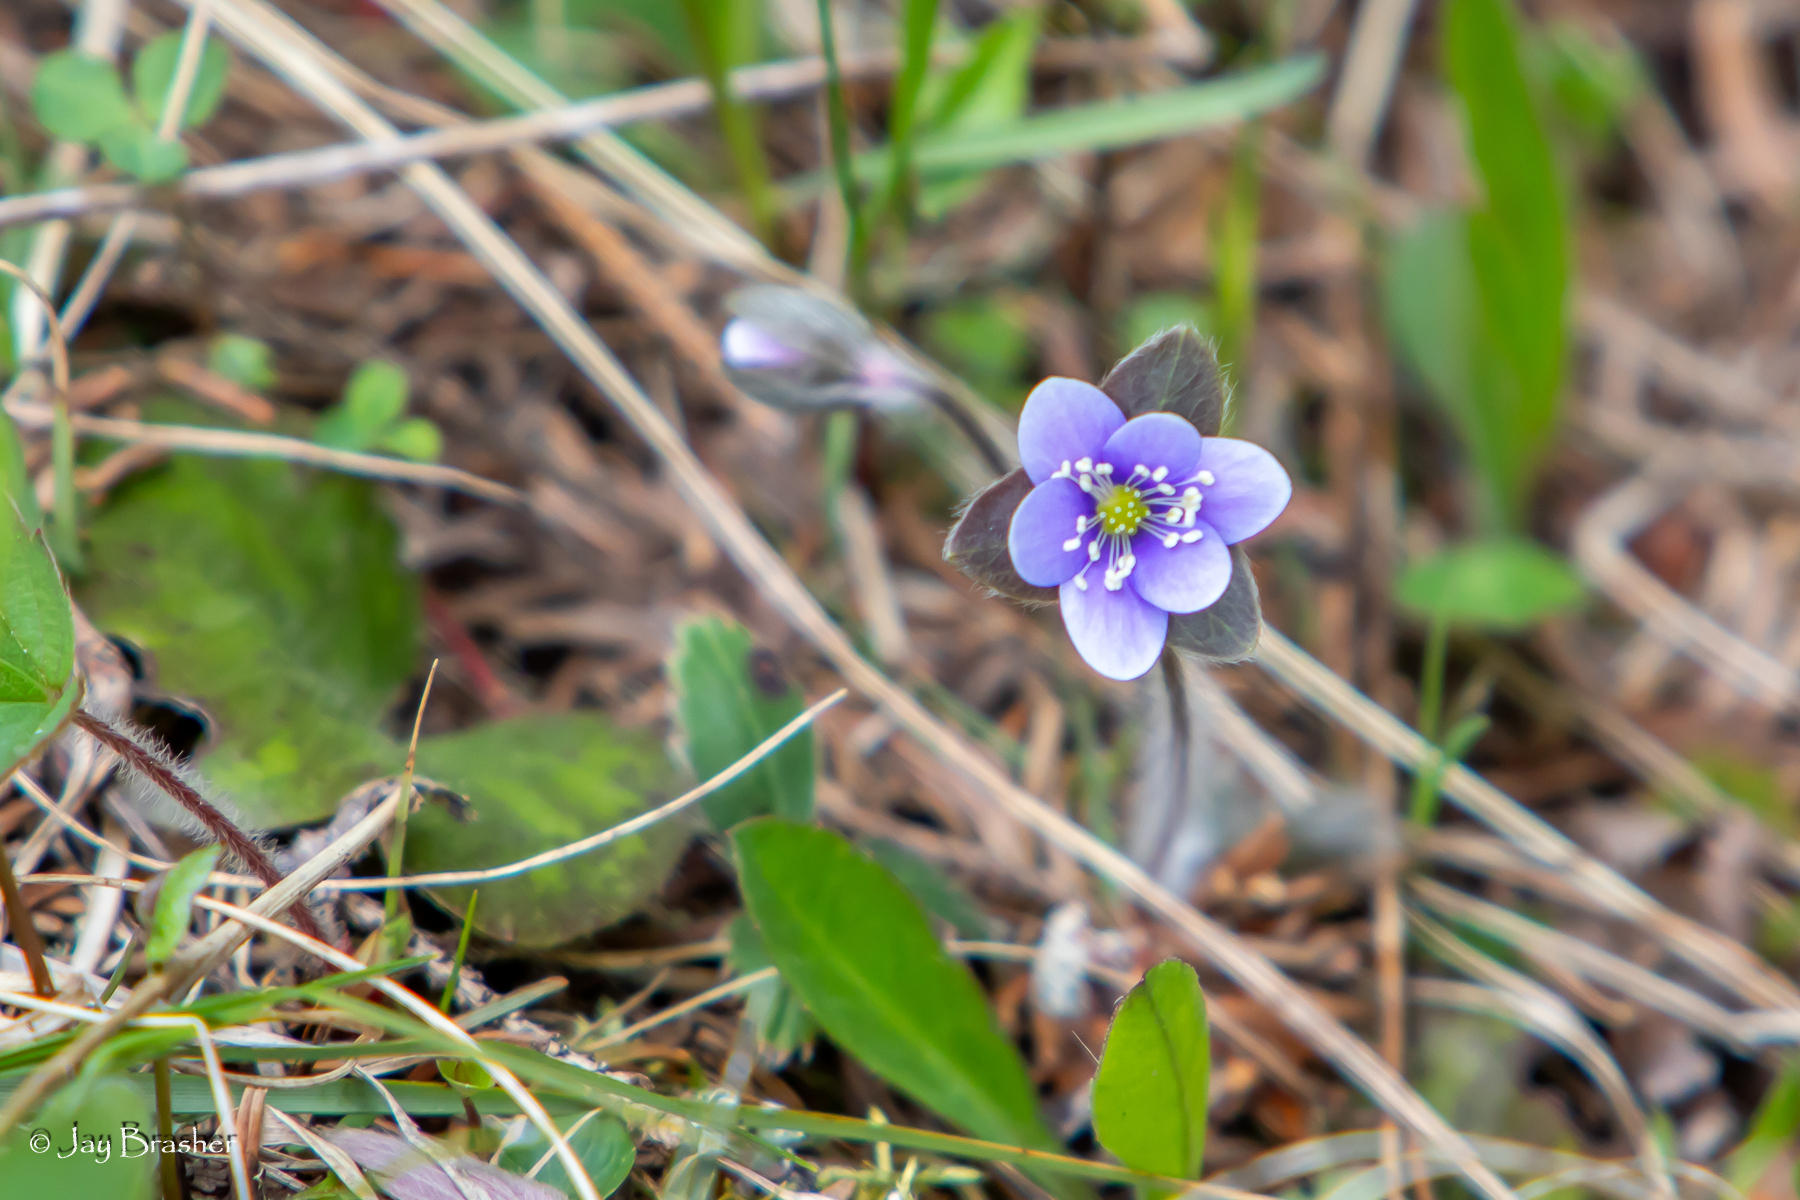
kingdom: Plantae
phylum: Tracheophyta
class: Magnoliopsida
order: Ranunculales
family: Ranunculaceae
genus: Hepatica
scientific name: Hepatica americana
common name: American hepatica
